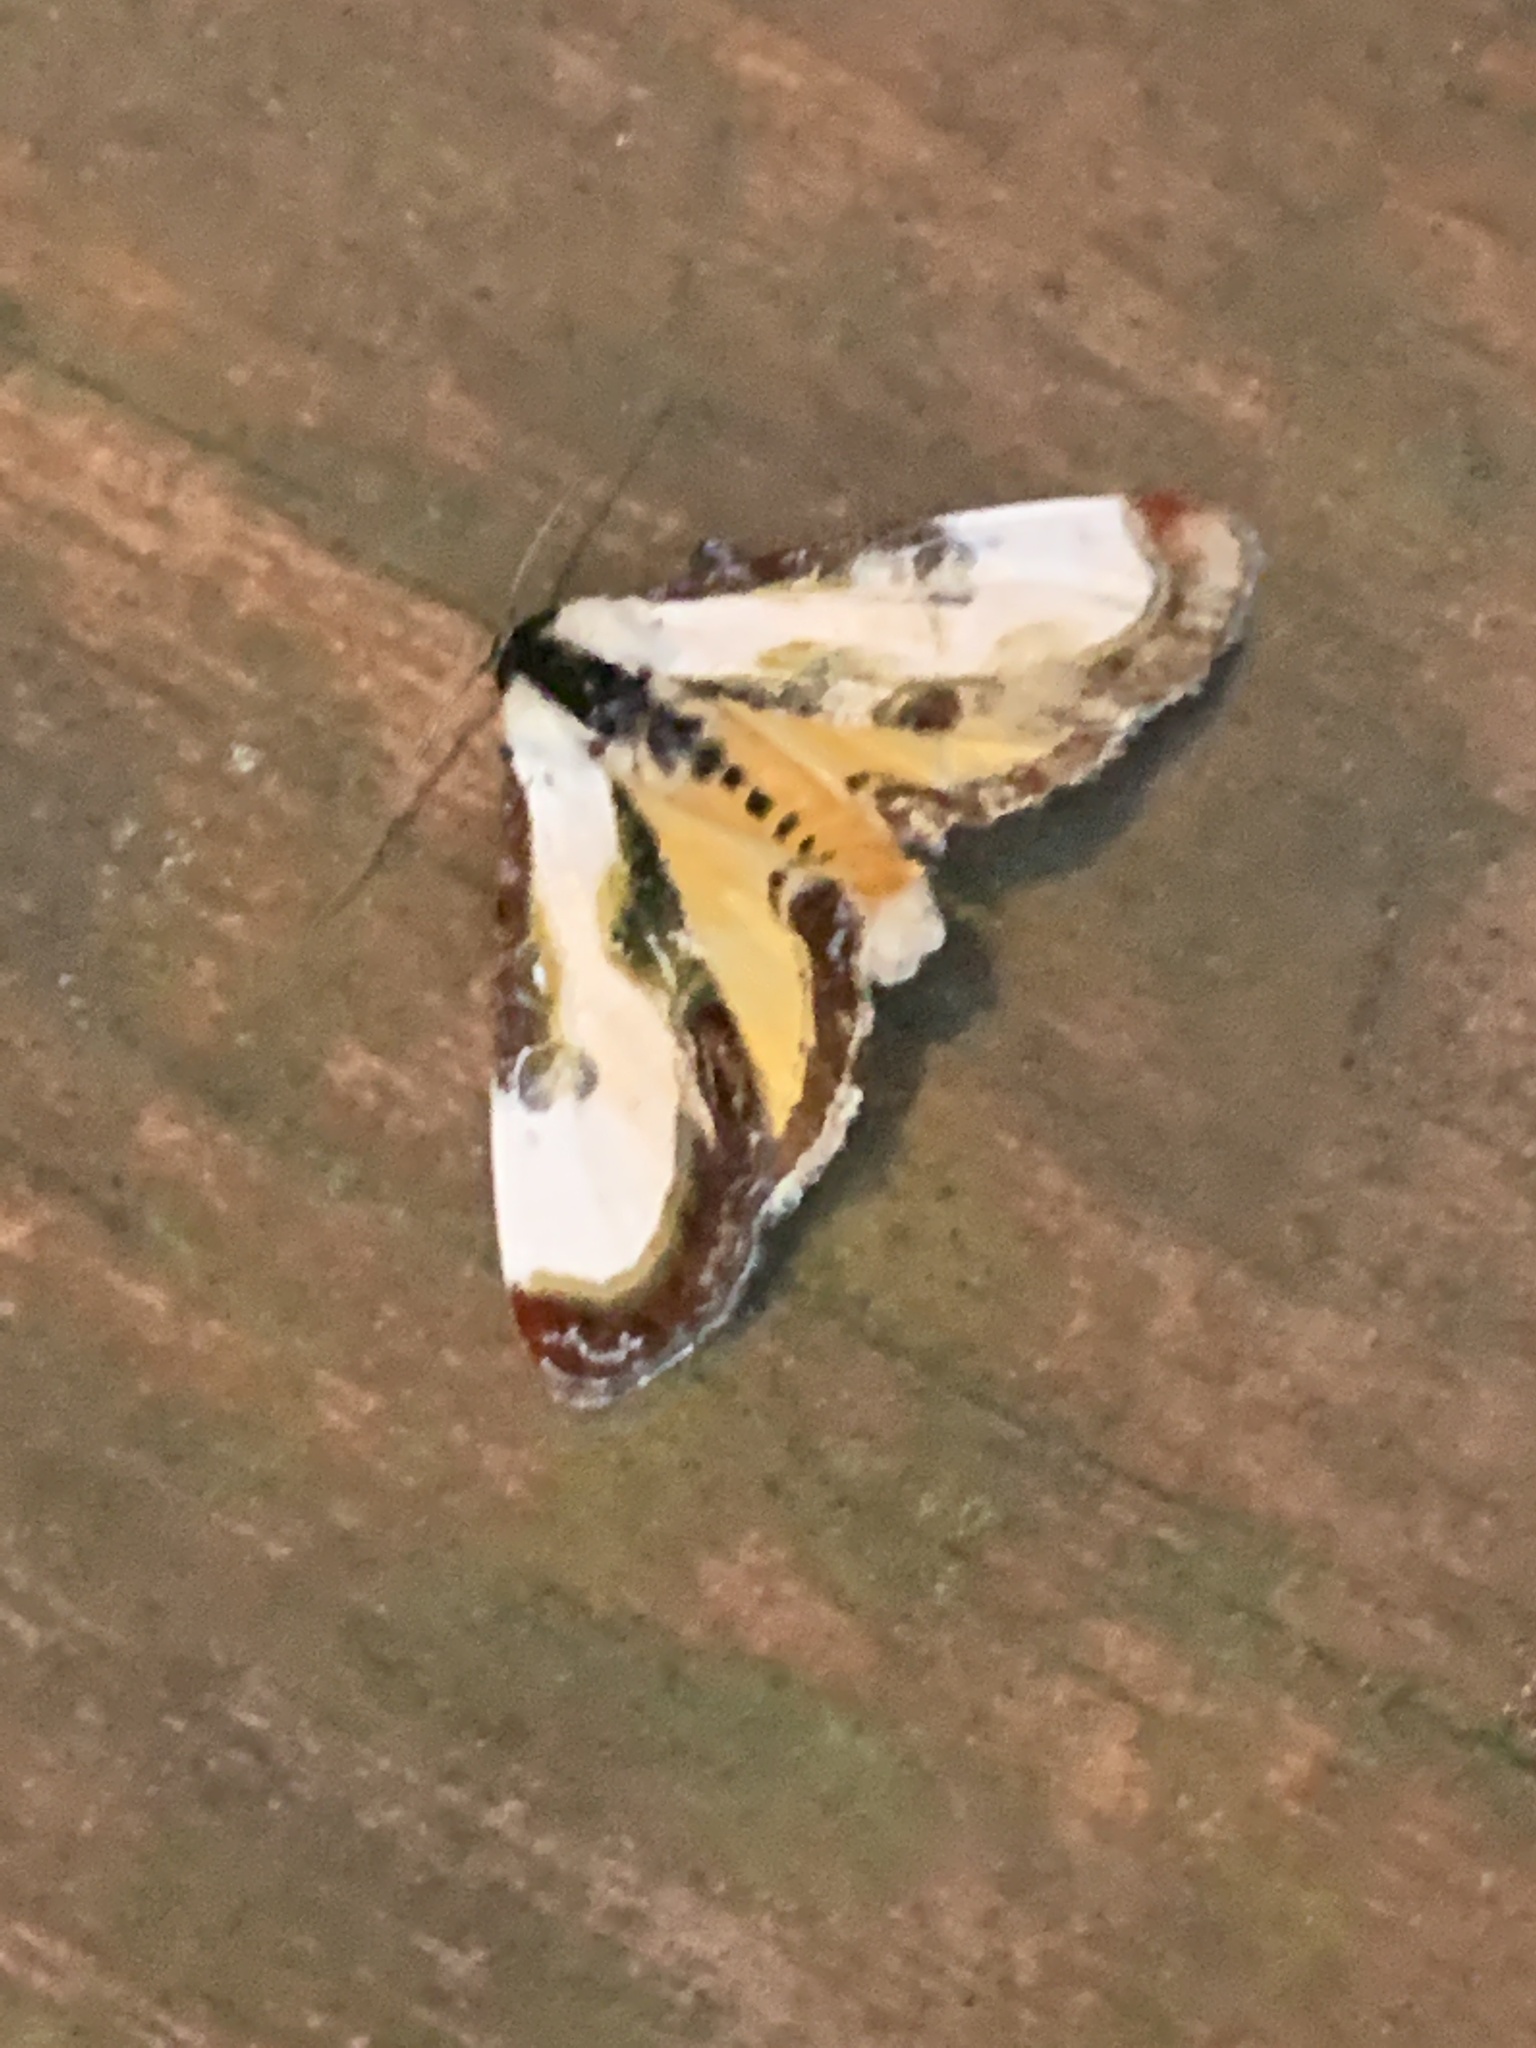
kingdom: Animalia
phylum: Arthropoda
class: Insecta
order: Lepidoptera
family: Noctuidae
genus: Eudryas
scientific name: Eudryas grata
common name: Beautiful wood-nymph
